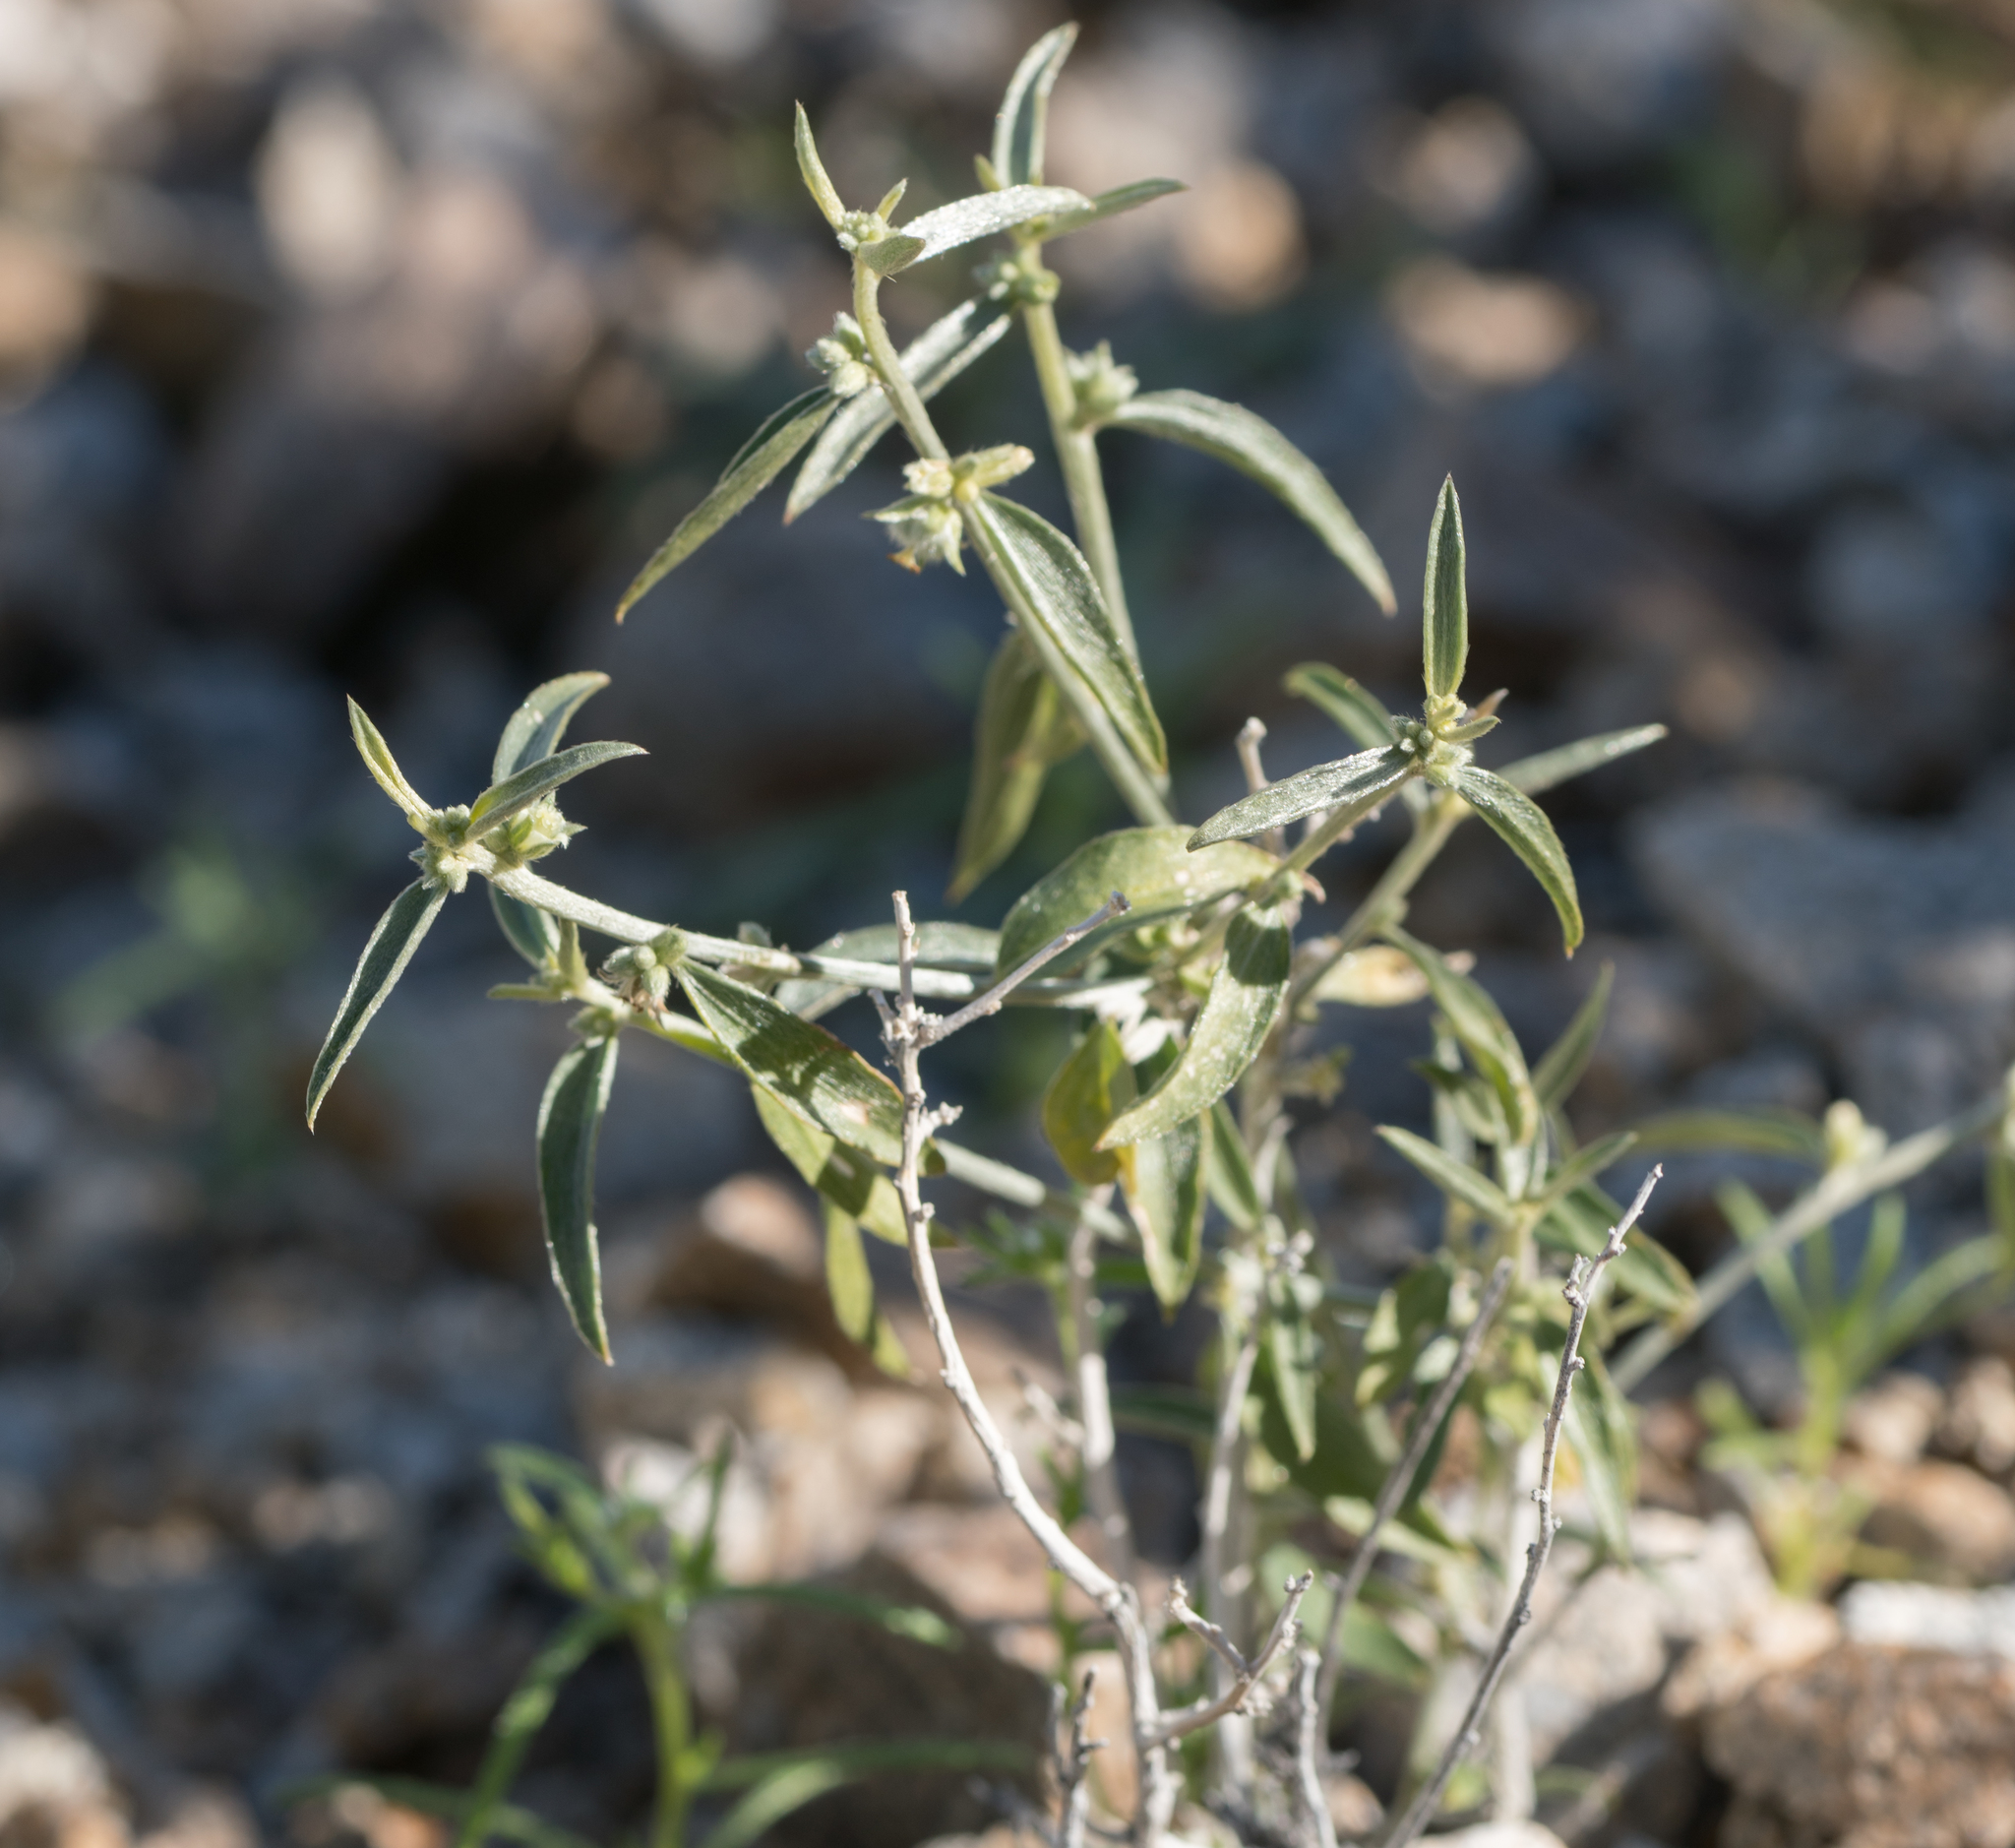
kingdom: Plantae
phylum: Tracheophyta
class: Magnoliopsida
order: Malpighiales
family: Euphorbiaceae
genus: Ditaxis
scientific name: Ditaxis lanceolata
